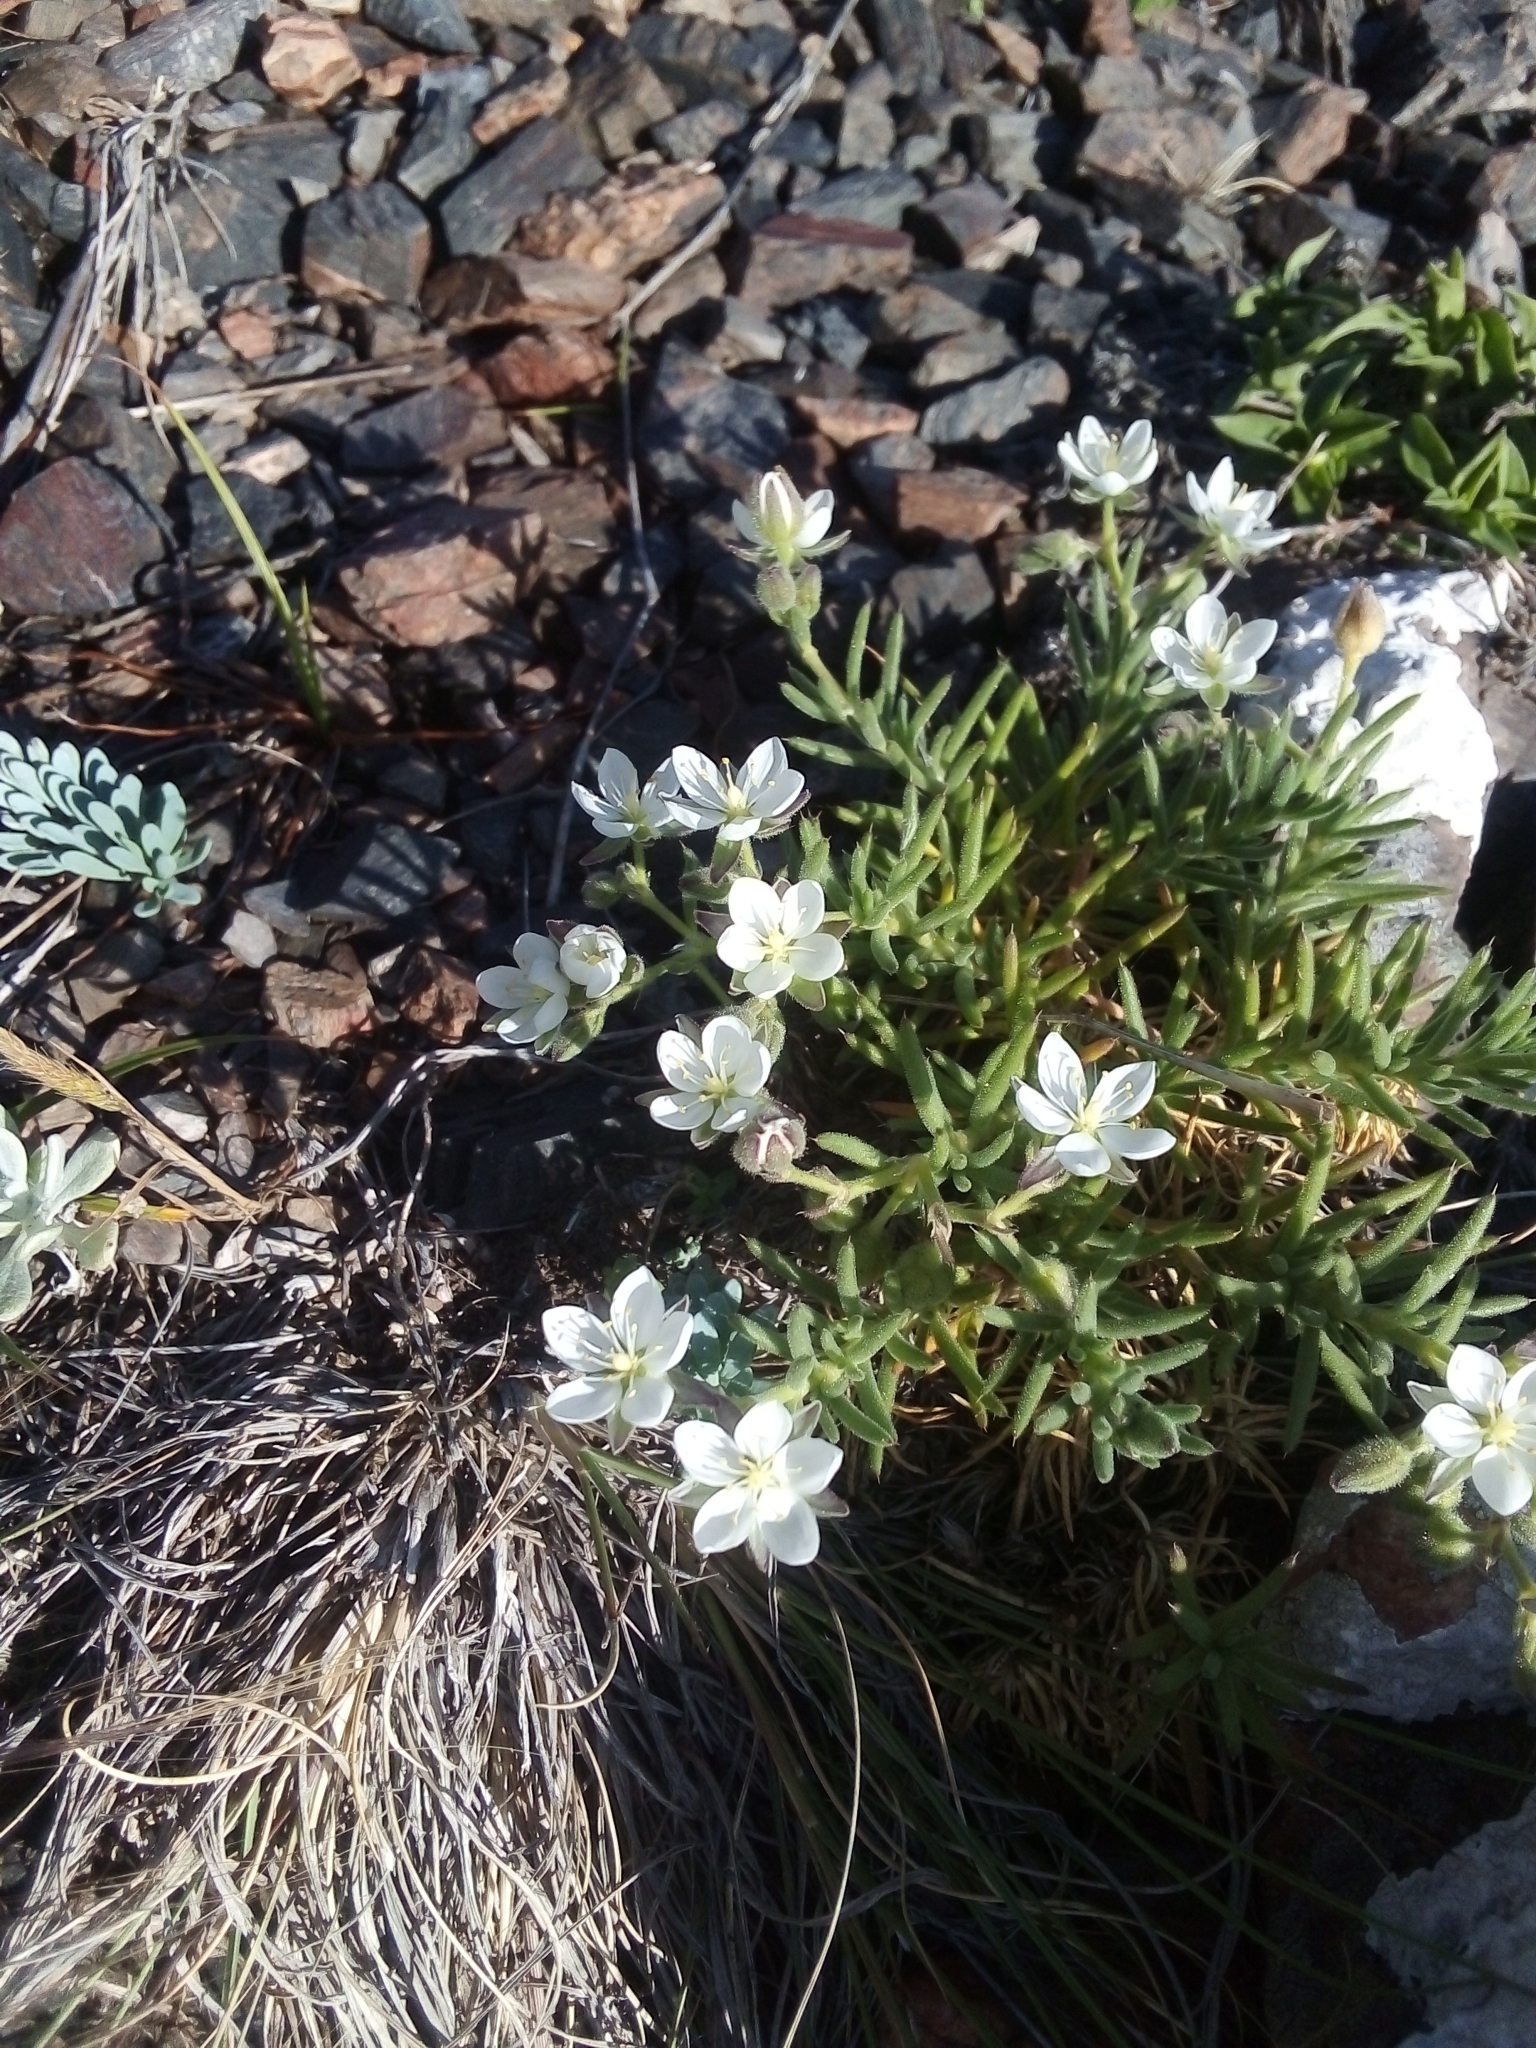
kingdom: Plantae
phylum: Tracheophyta
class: Magnoliopsida
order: Caryophyllales
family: Caryophyllaceae
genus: Spergularia
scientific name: Spergularia
